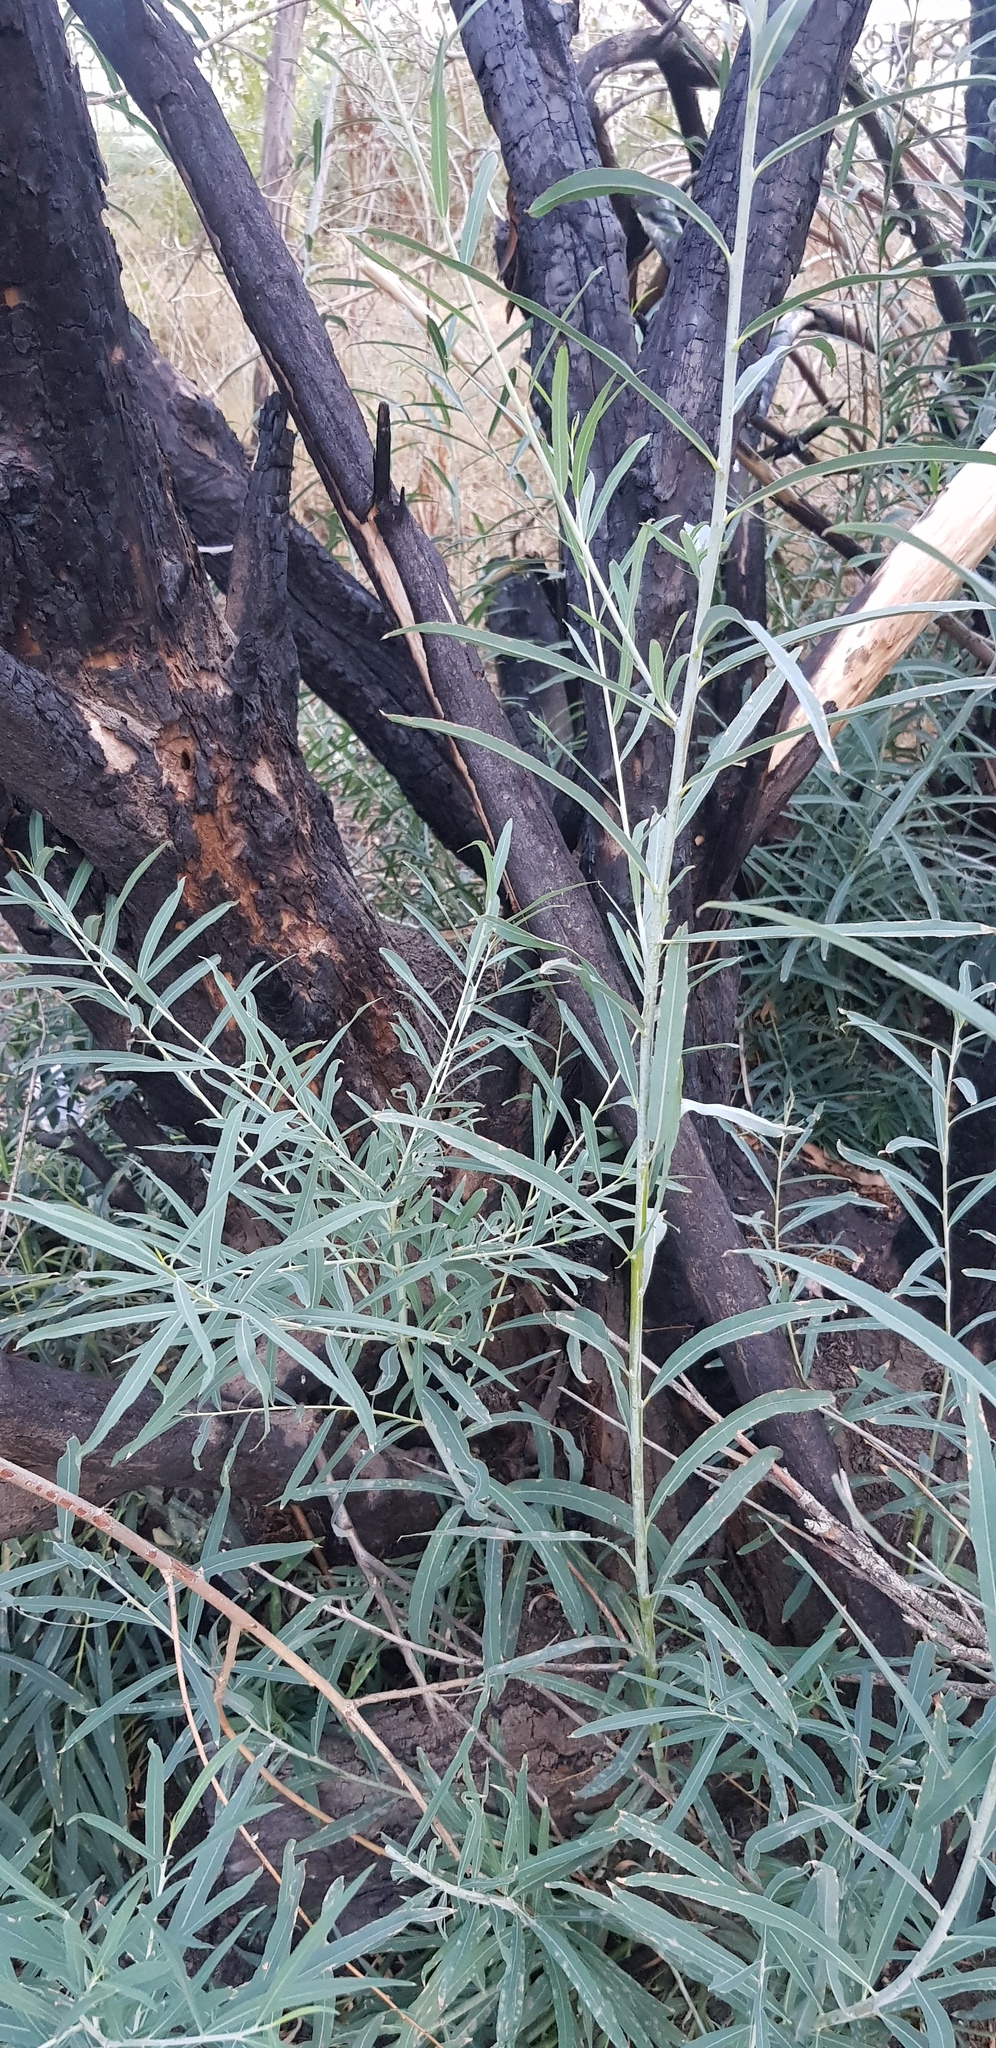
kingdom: Plantae
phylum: Tracheophyta
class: Magnoliopsida
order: Malpighiales
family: Salicaceae
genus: Salix
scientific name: Salix viminalis
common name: Osier
